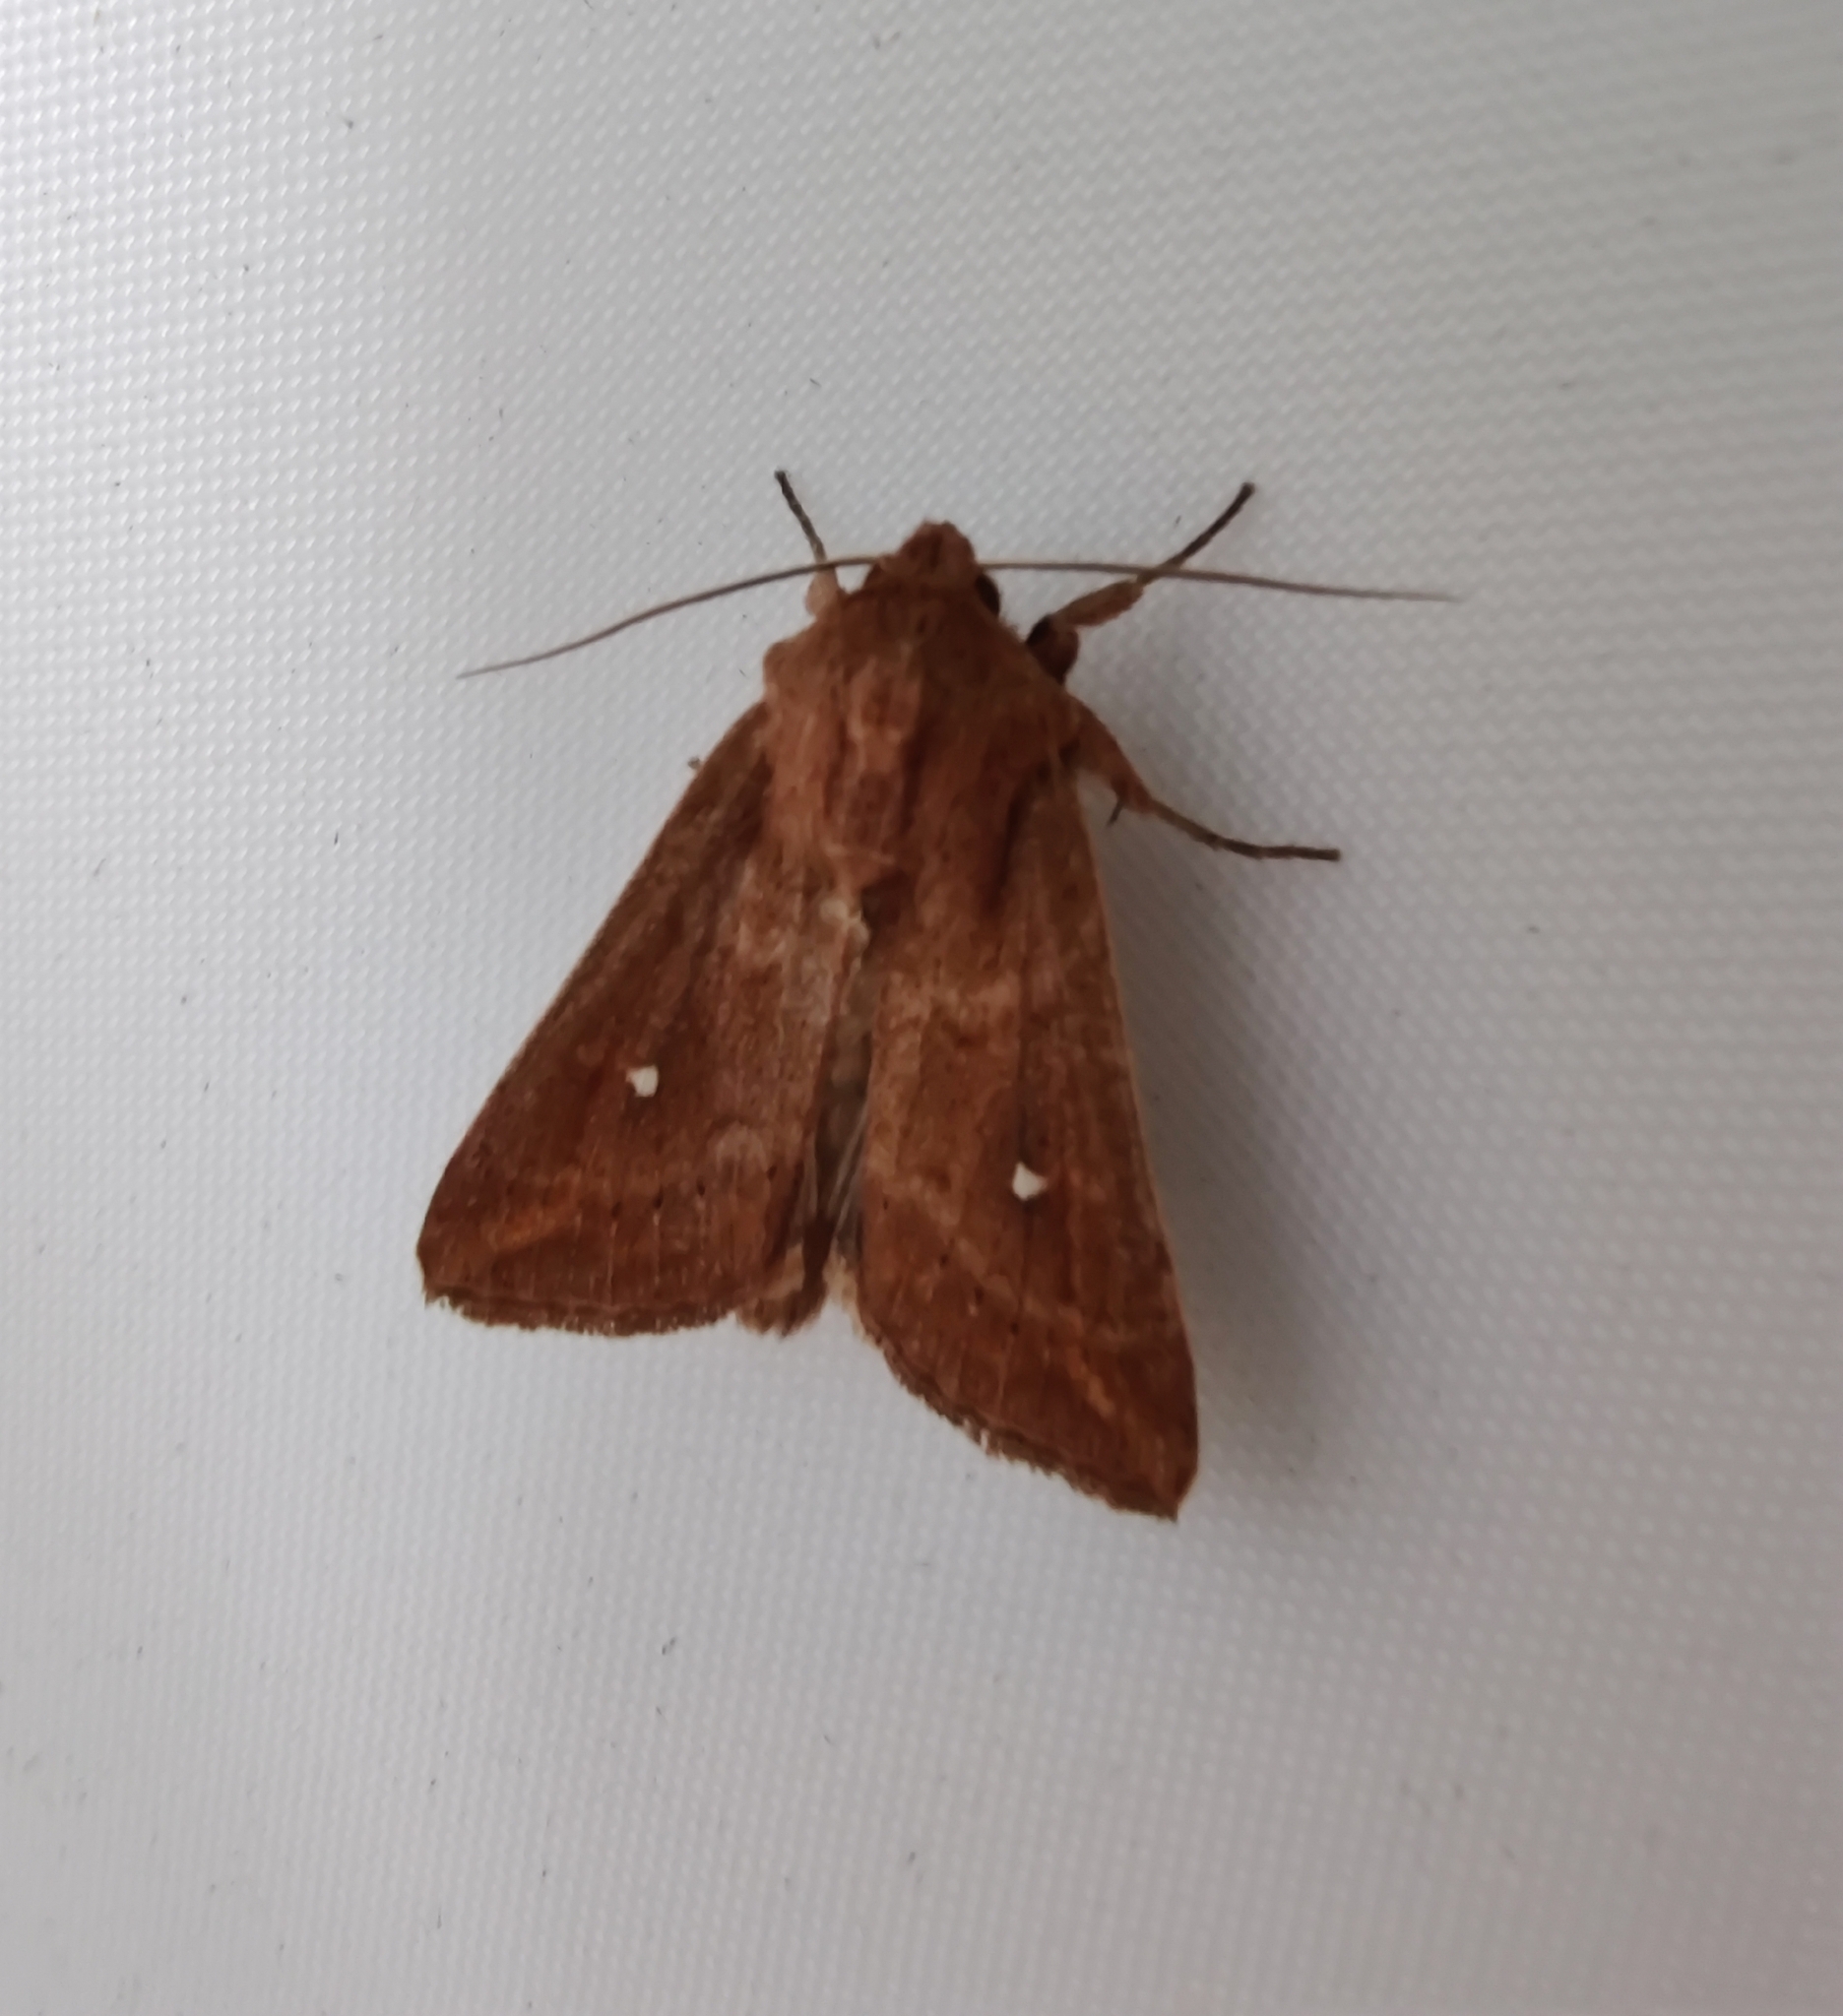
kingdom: Animalia
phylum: Arthropoda
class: Insecta
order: Lepidoptera
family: Noctuidae
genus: Mythimna
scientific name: Mythimna albipuncta
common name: White-point
